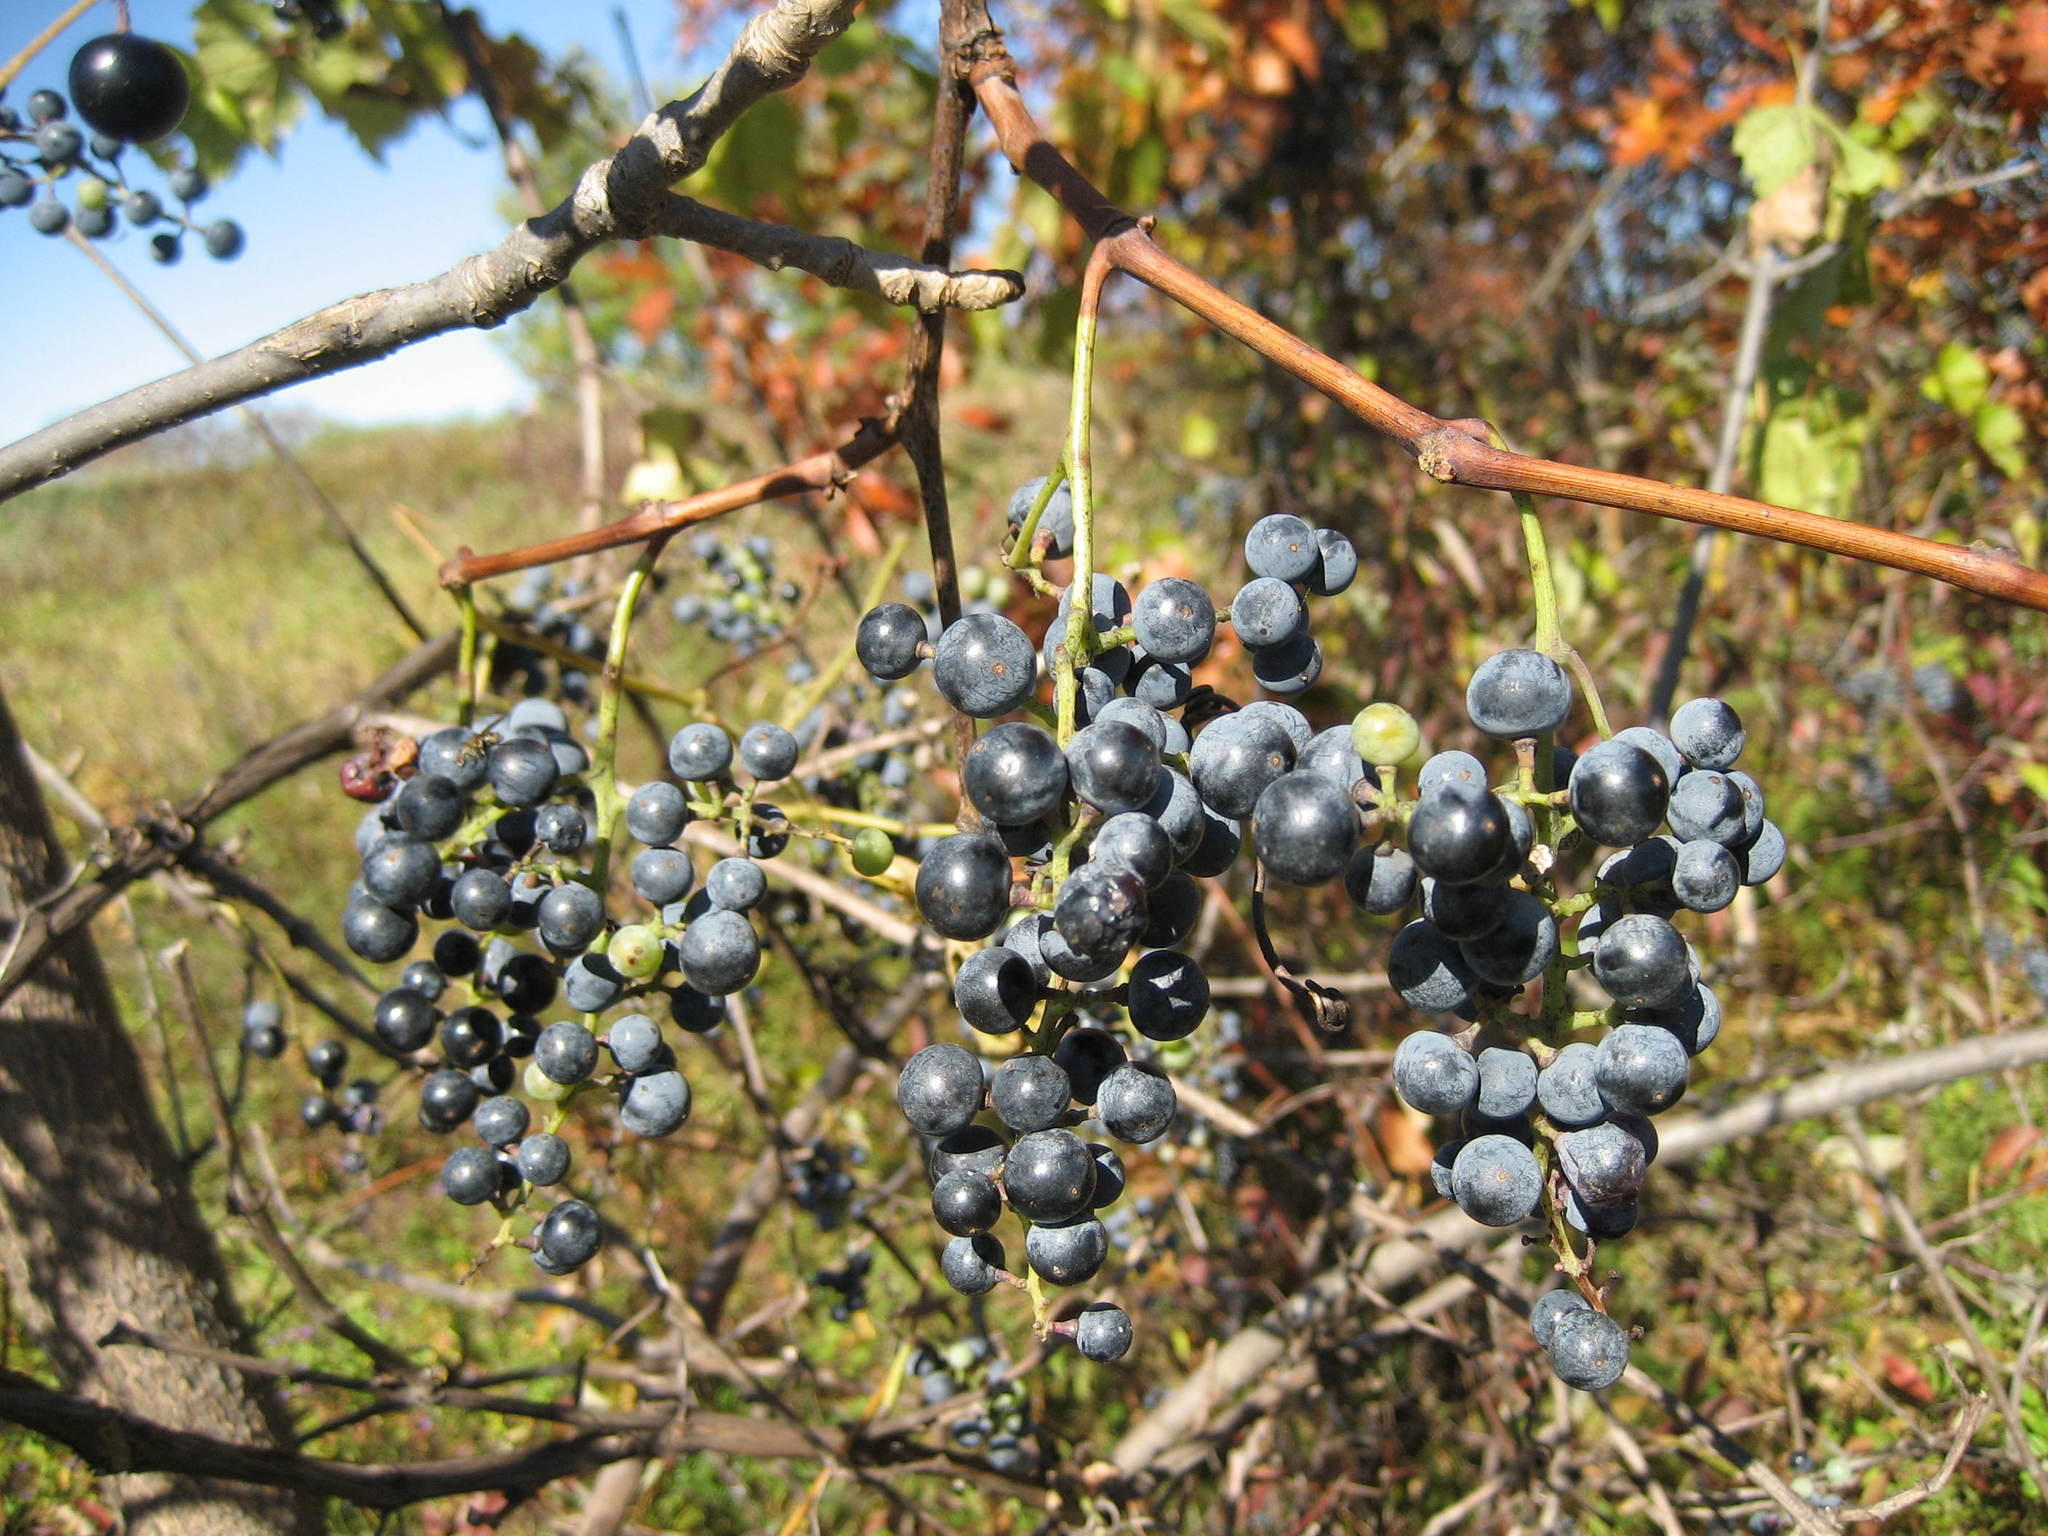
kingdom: Plantae
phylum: Tracheophyta
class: Magnoliopsida
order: Vitales
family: Vitaceae
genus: Vitis
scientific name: Vitis riparia
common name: Frost grape
